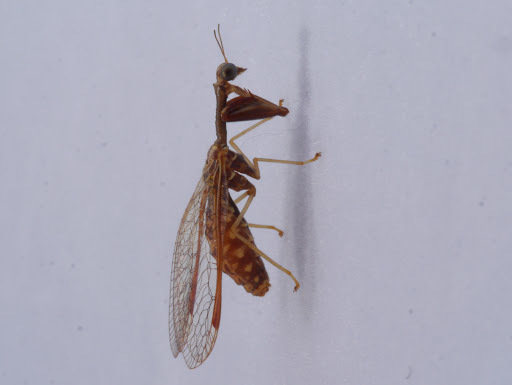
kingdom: Animalia
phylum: Arthropoda
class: Insecta
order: Neuroptera
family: Mantispidae
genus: Dicromantispa
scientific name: Dicromantispa sayi
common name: Say's mantidfly
